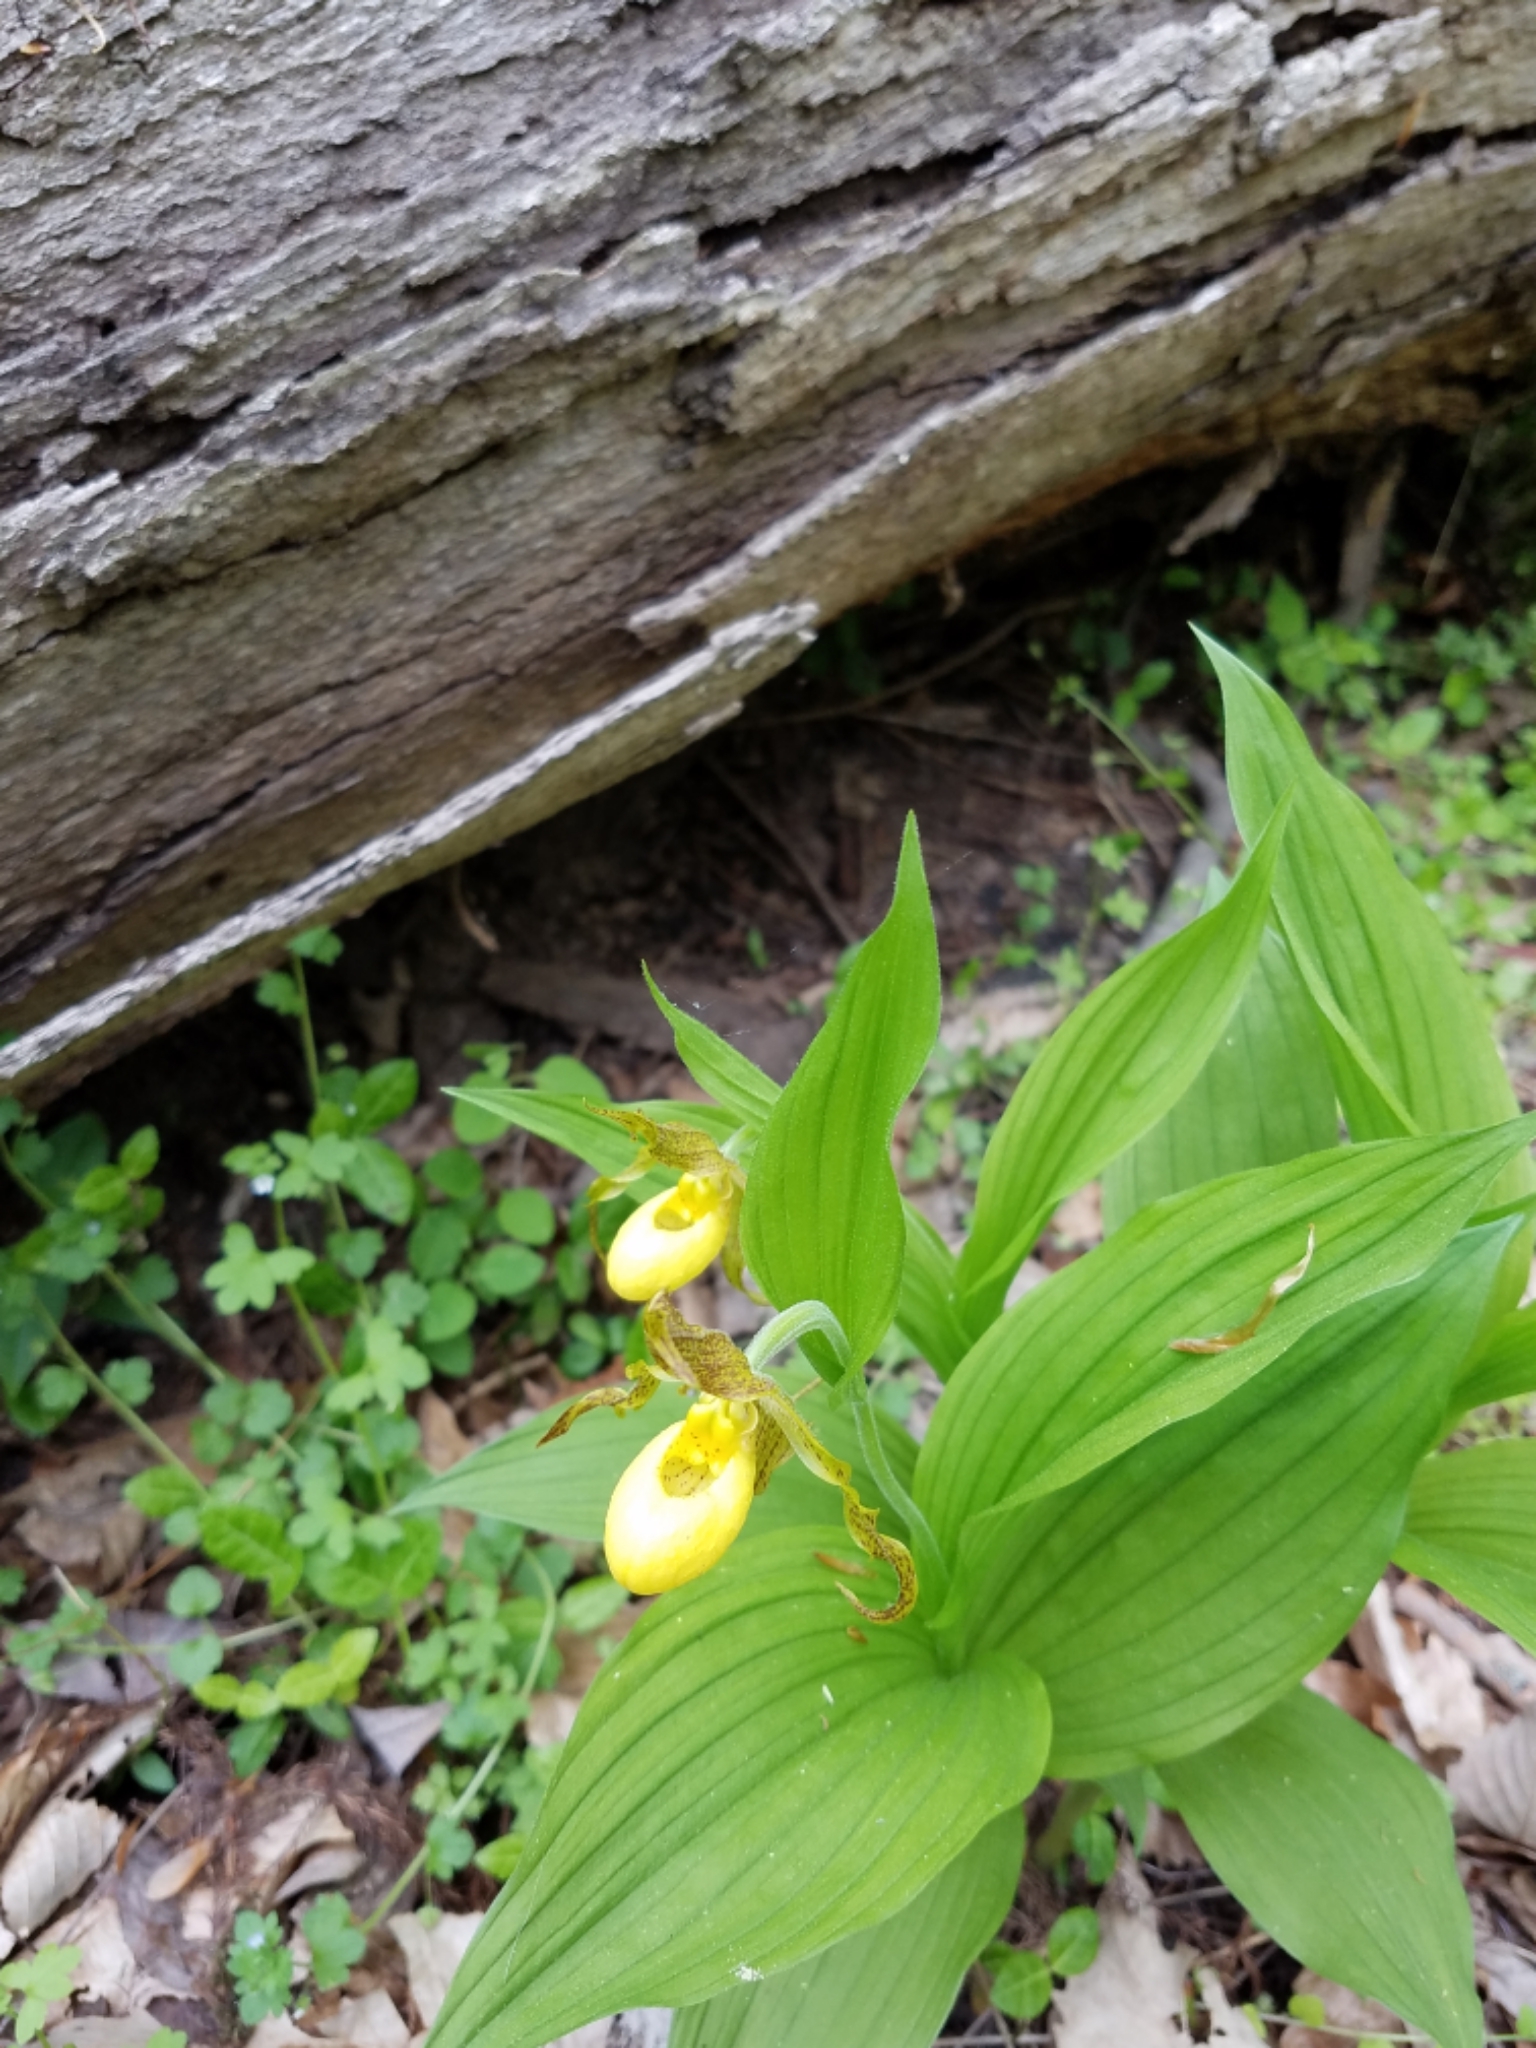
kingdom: Plantae
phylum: Tracheophyta
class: Liliopsida
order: Asparagales
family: Orchidaceae
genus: Cypripedium
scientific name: Cypripedium parviflorum
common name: American yellow lady's-slipper
